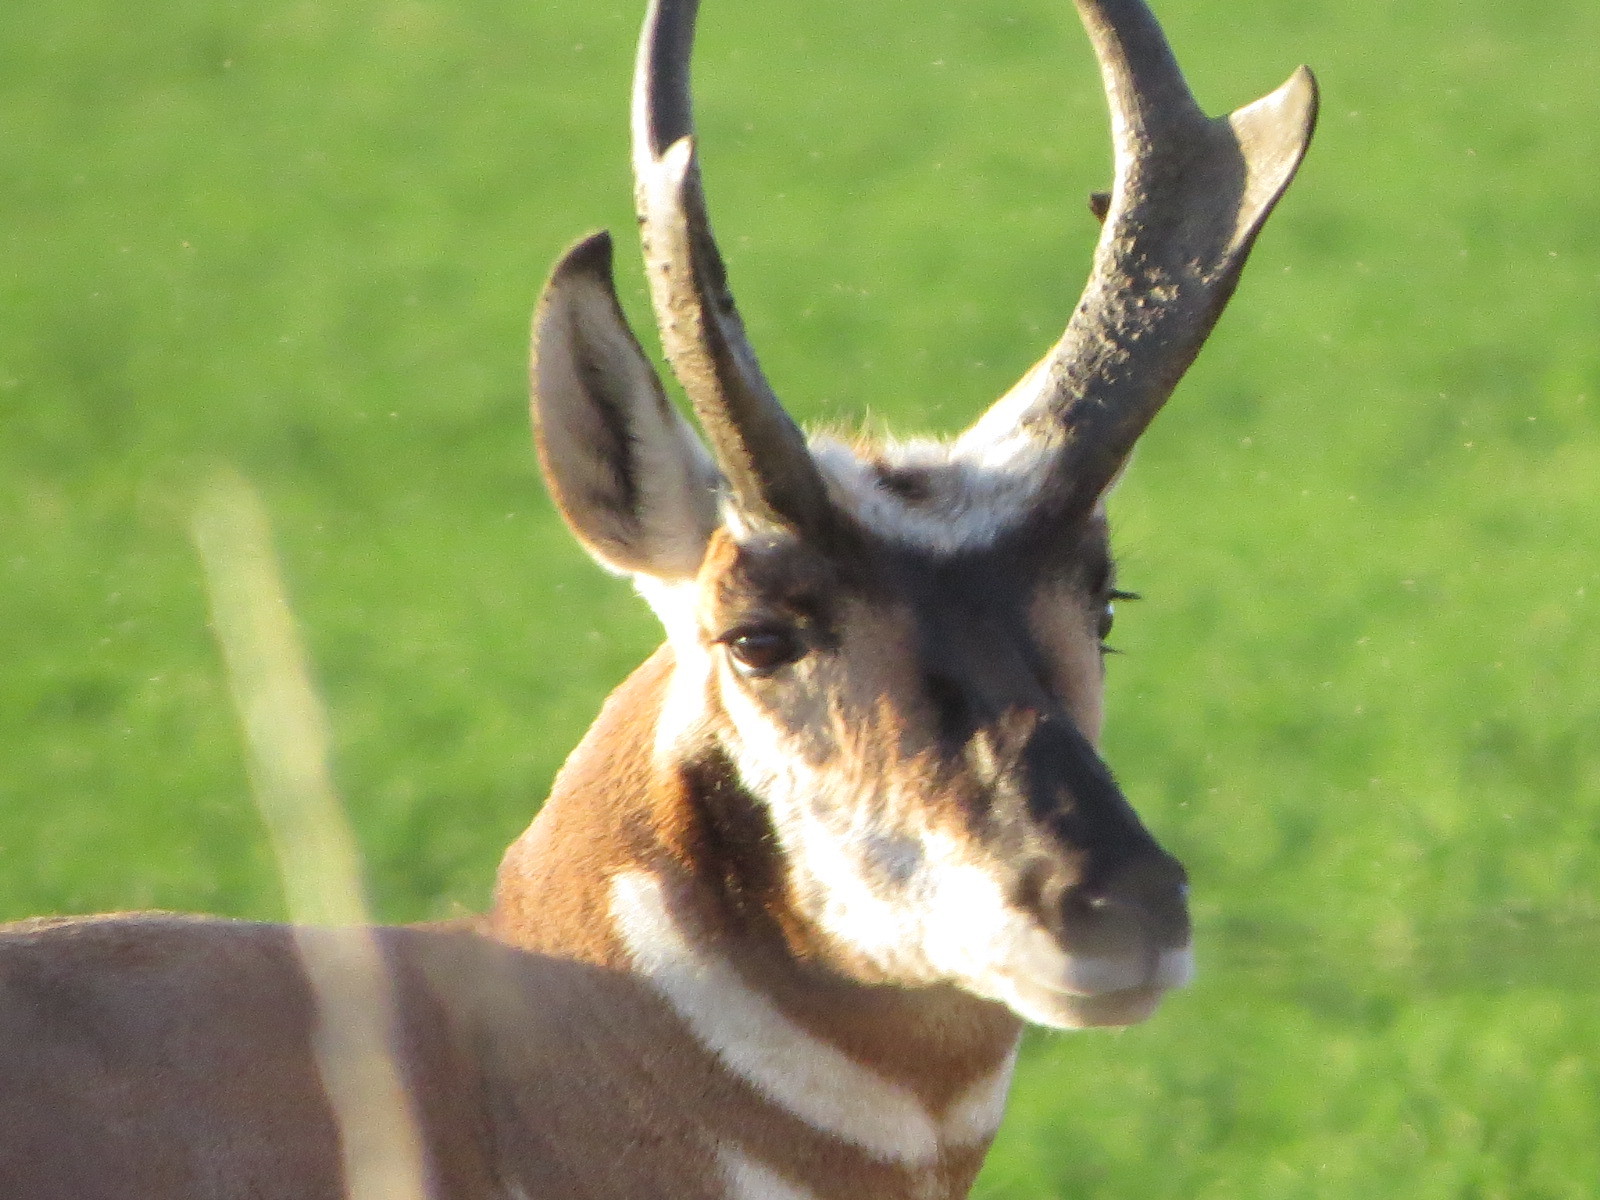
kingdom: Animalia
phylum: Chordata
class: Mammalia
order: Artiodactyla
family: Antilocapridae
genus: Antilocapra
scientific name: Antilocapra americana
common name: Pronghorn
